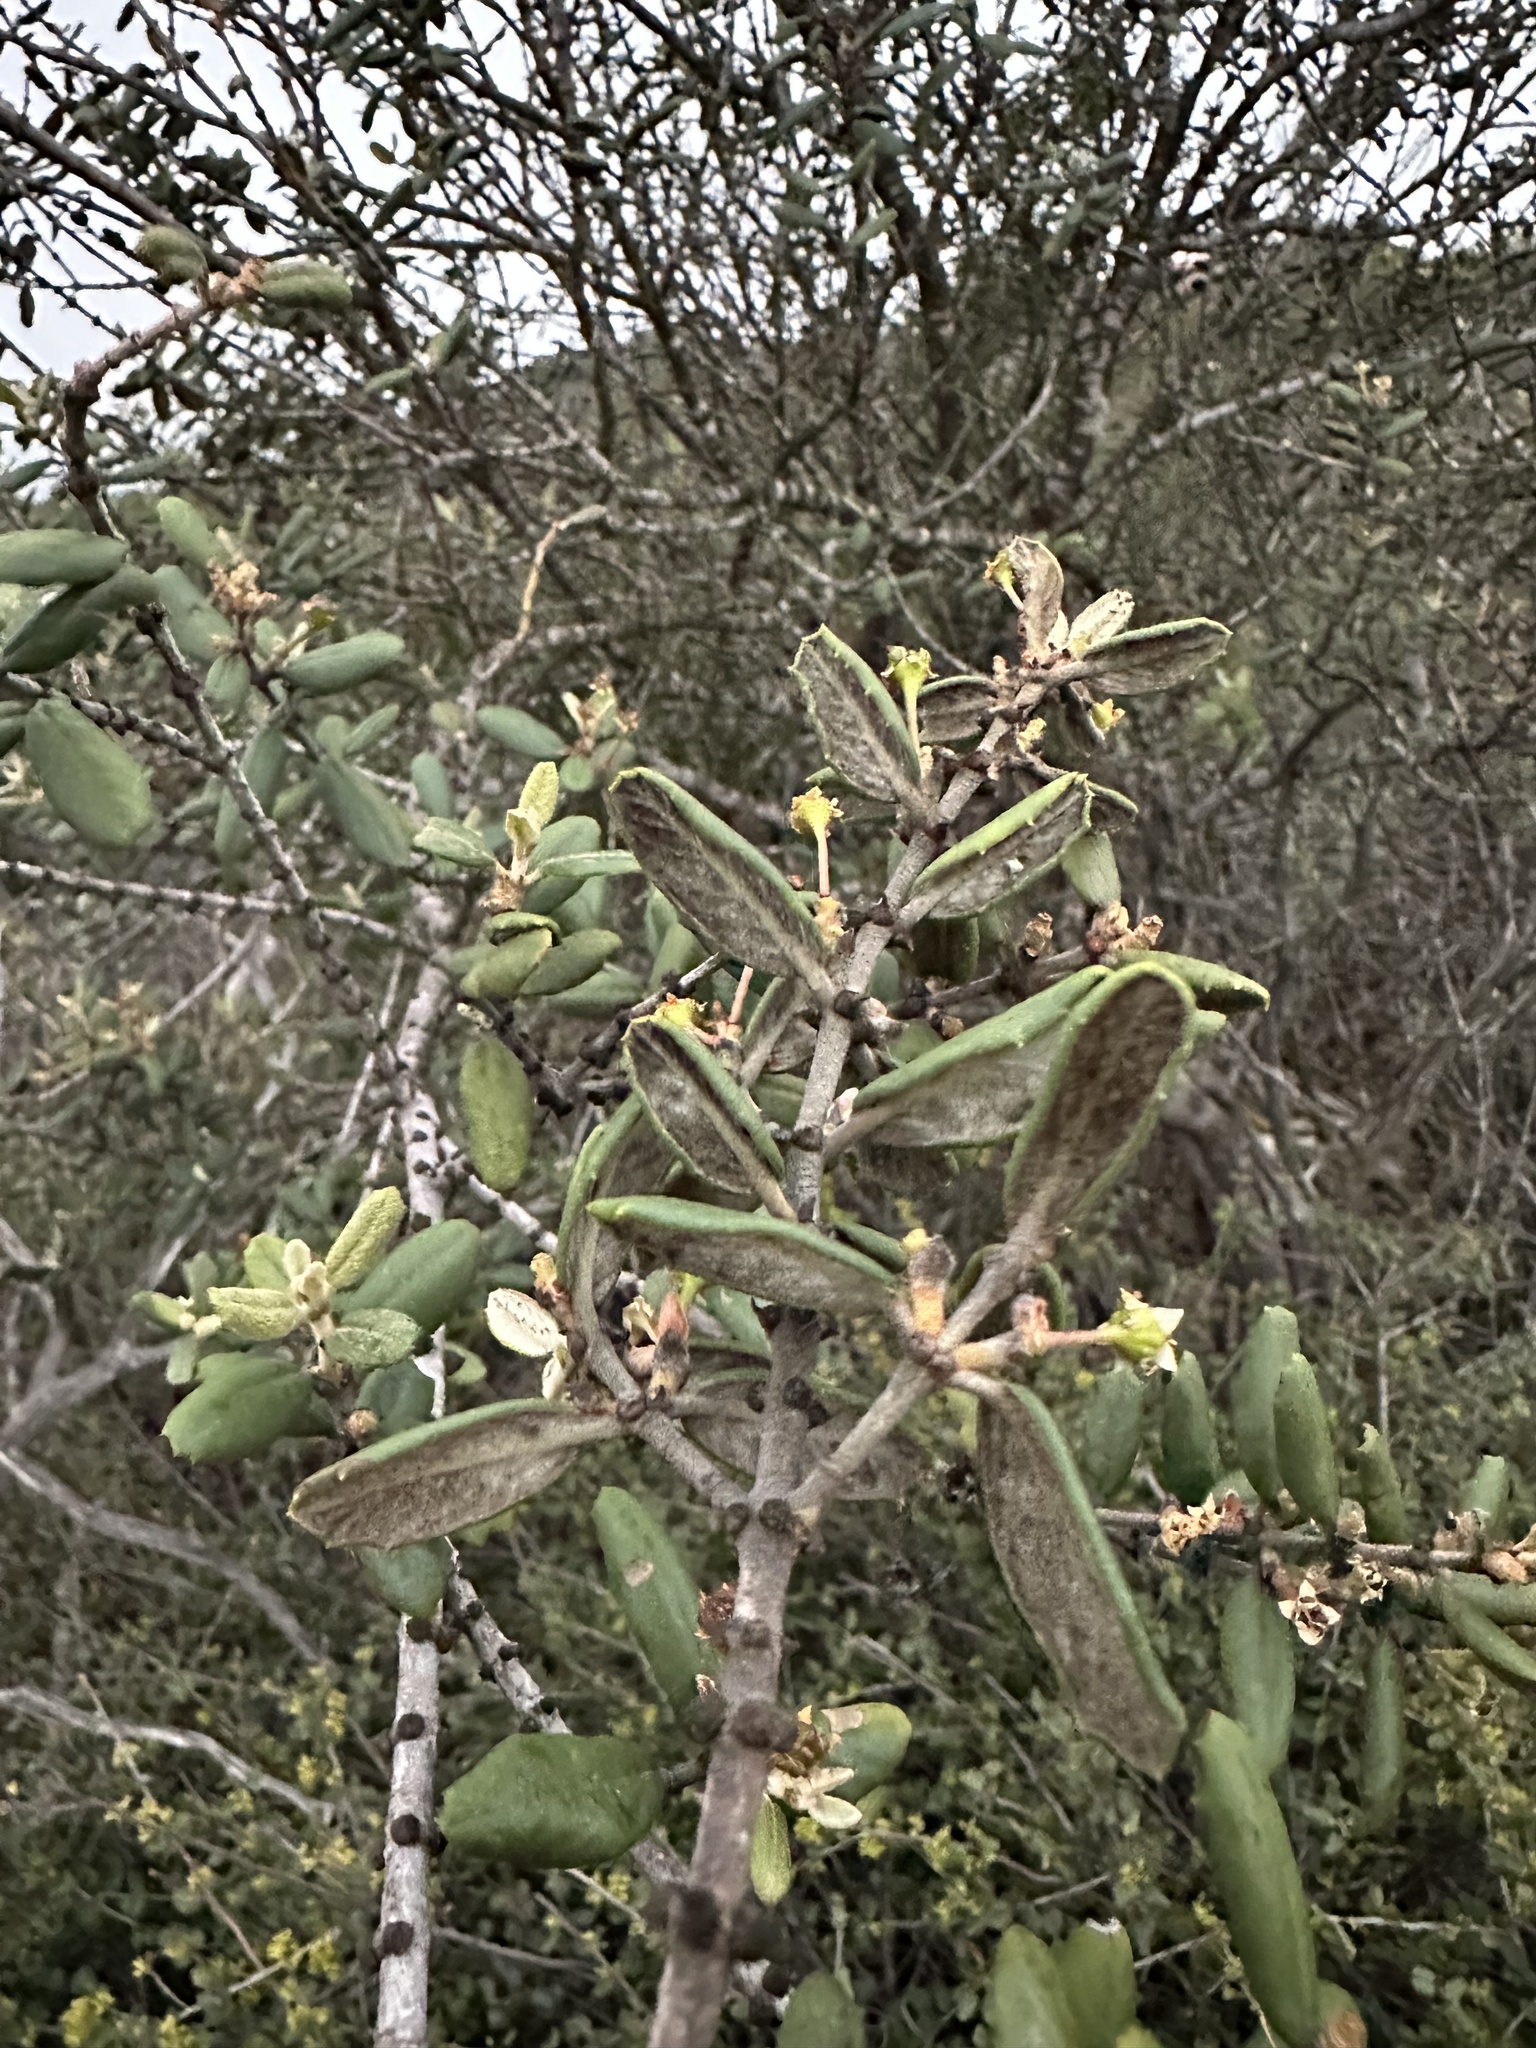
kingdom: Plantae
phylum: Tracheophyta
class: Magnoliopsida
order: Rosales
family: Rhamnaceae
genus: Ceanothus
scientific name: Ceanothus crassifolius
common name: Hoaryleaf ceanothus
